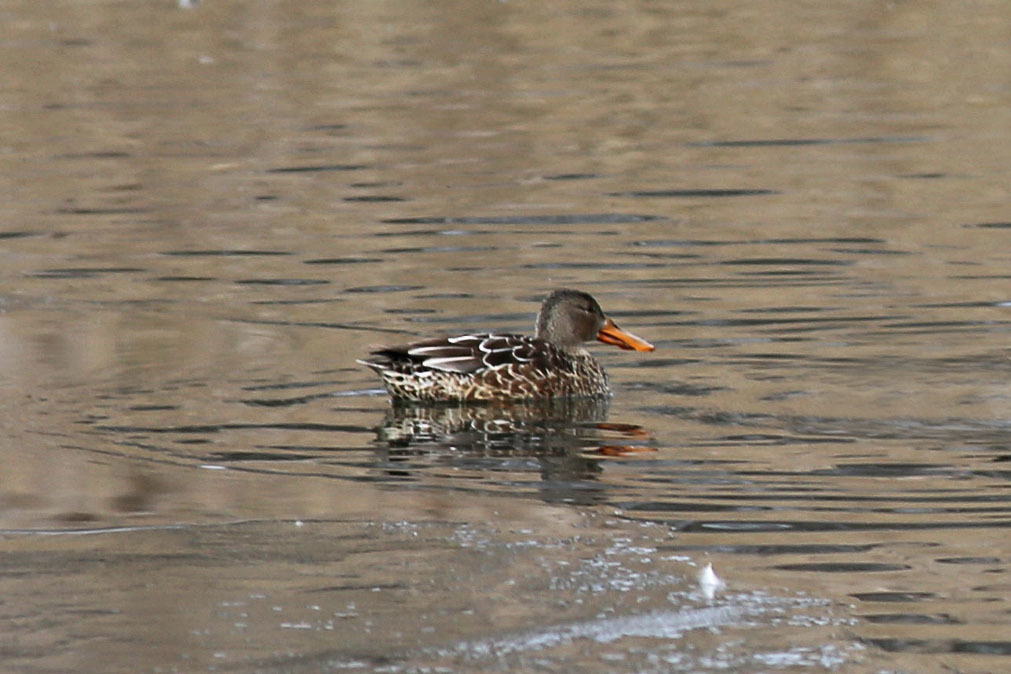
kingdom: Animalia
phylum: Chordata
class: Aves
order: Anseriformes
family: Anatidae
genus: Spatula
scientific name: Spatula clypeata
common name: Northern shoveler
